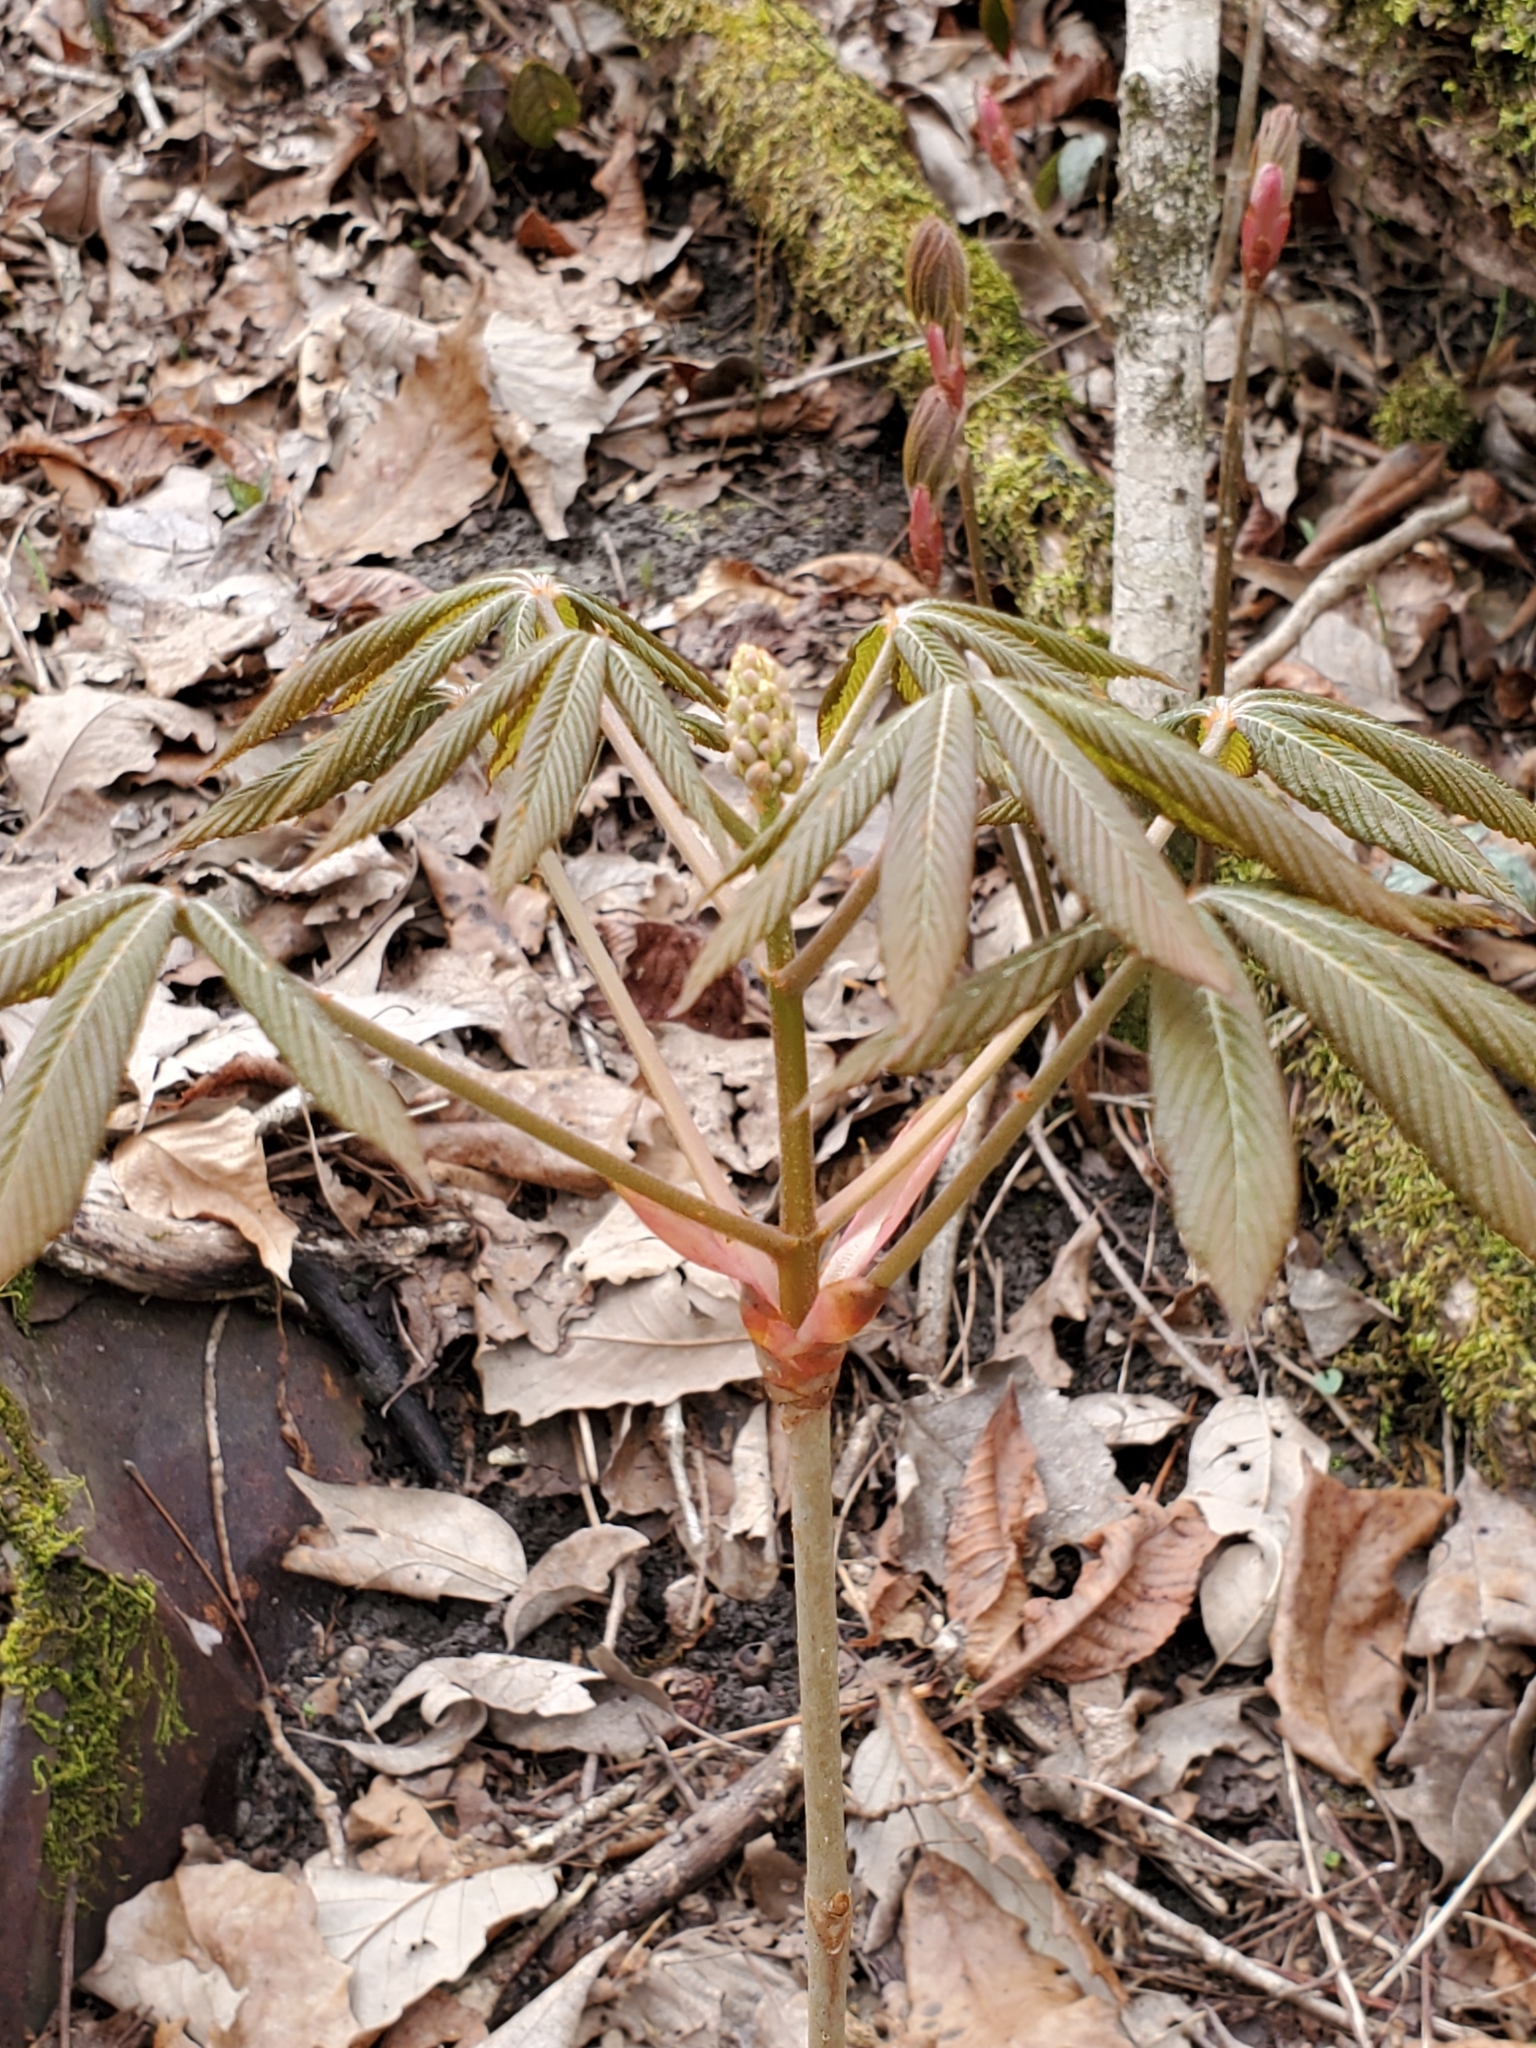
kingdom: Plantae
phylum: Tracheophyta
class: Magnoliopsida
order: Sapindales
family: Sapindaceae
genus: Aesculus
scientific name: Aesculus glabra
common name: Ohio buckeye
